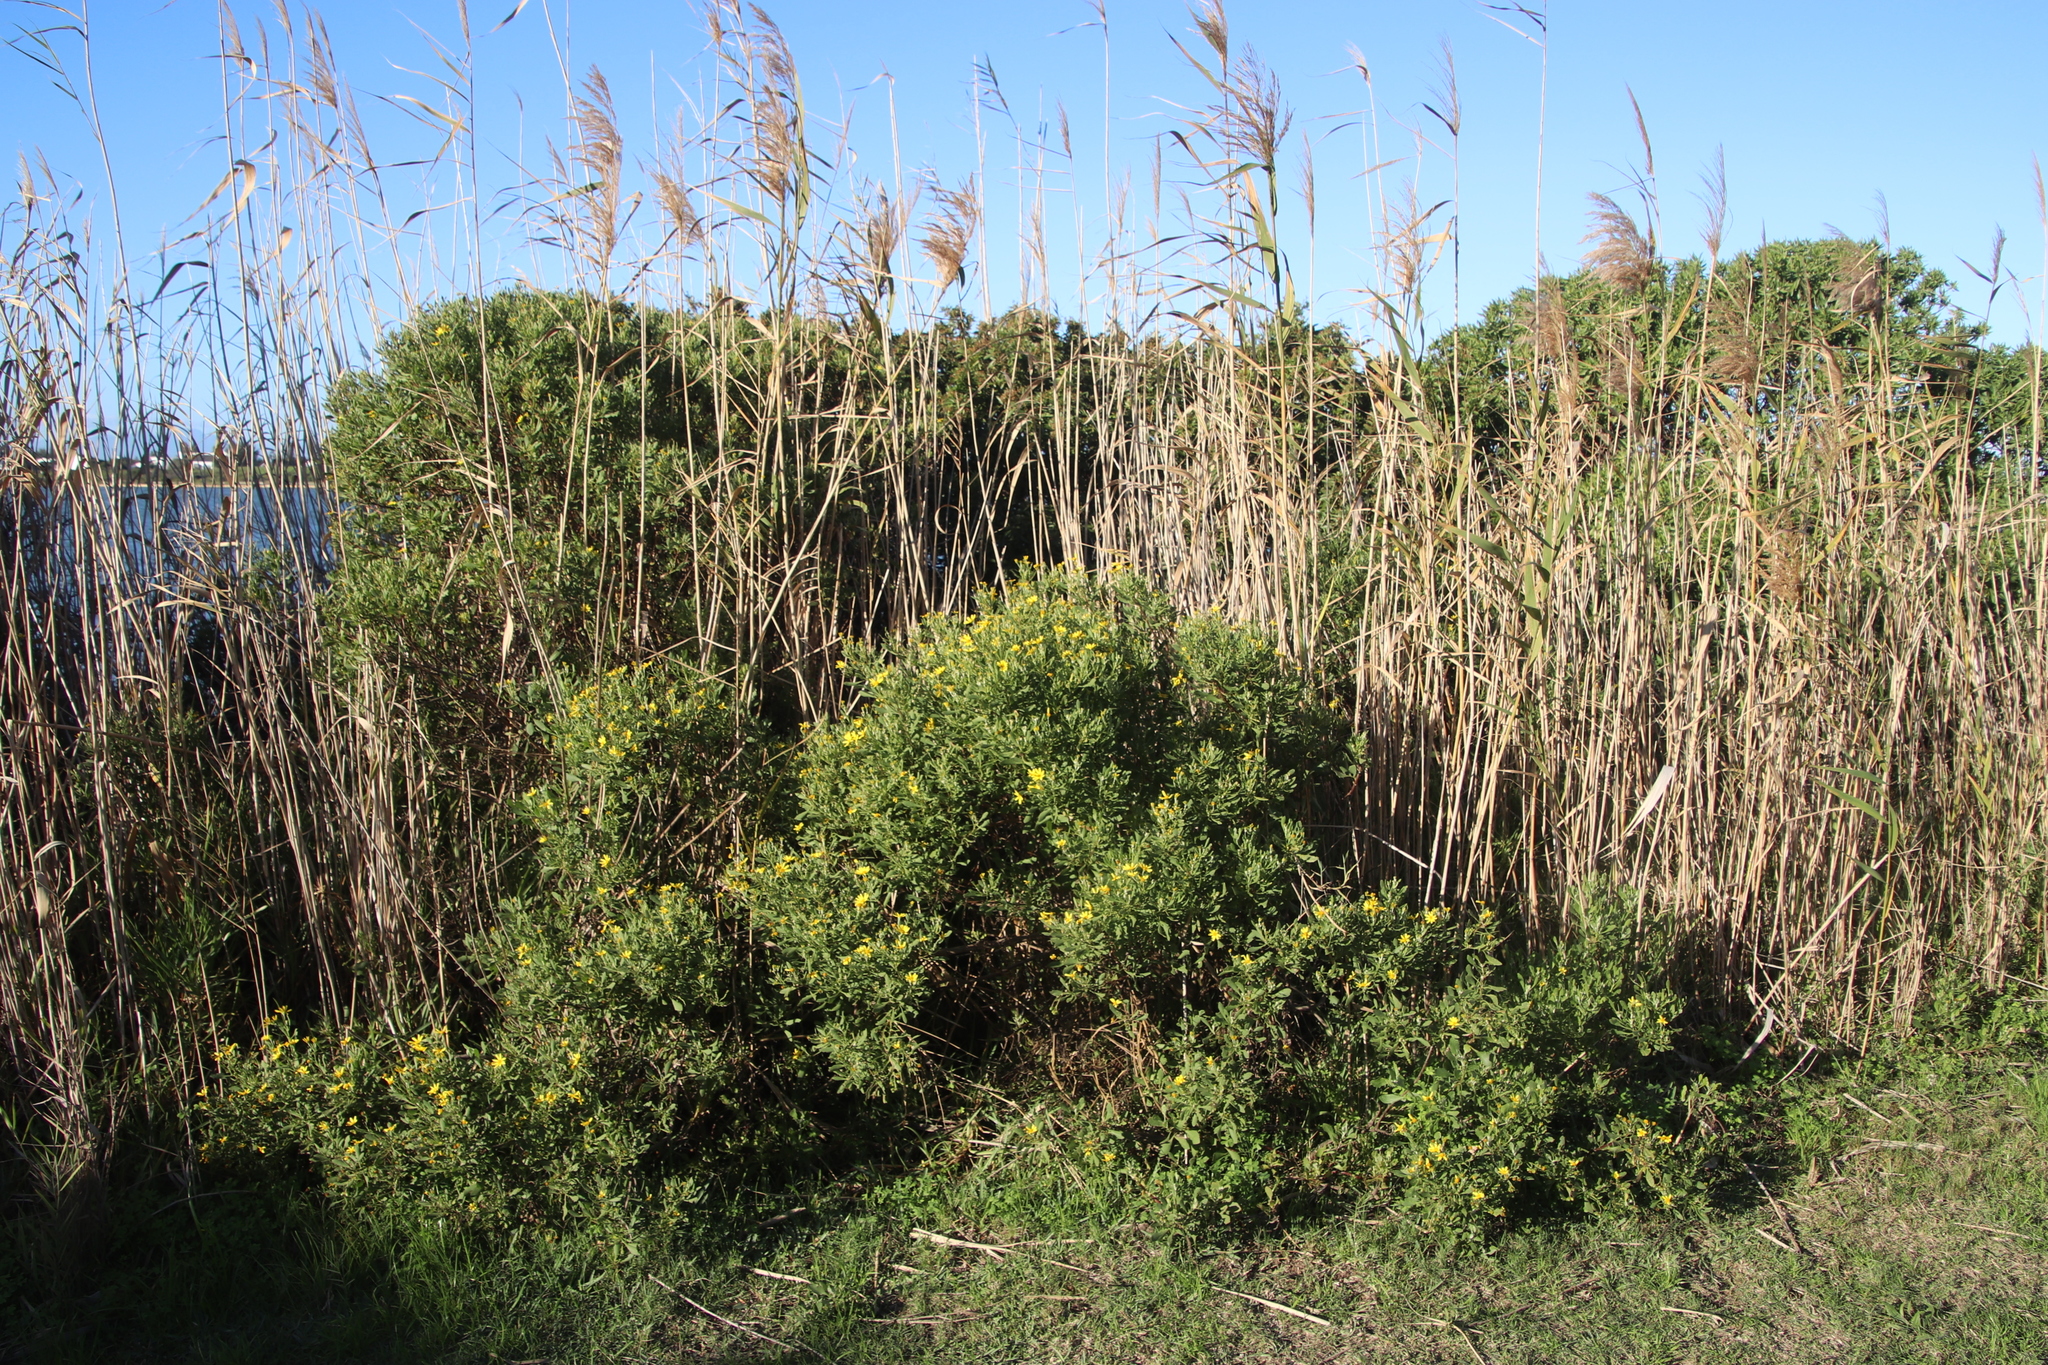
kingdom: Plantae
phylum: Tracheophyta
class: Magnoliopsida
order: Asterales
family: Asteraceae
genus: Osteospermum
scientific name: Osteospermum moniliferum
